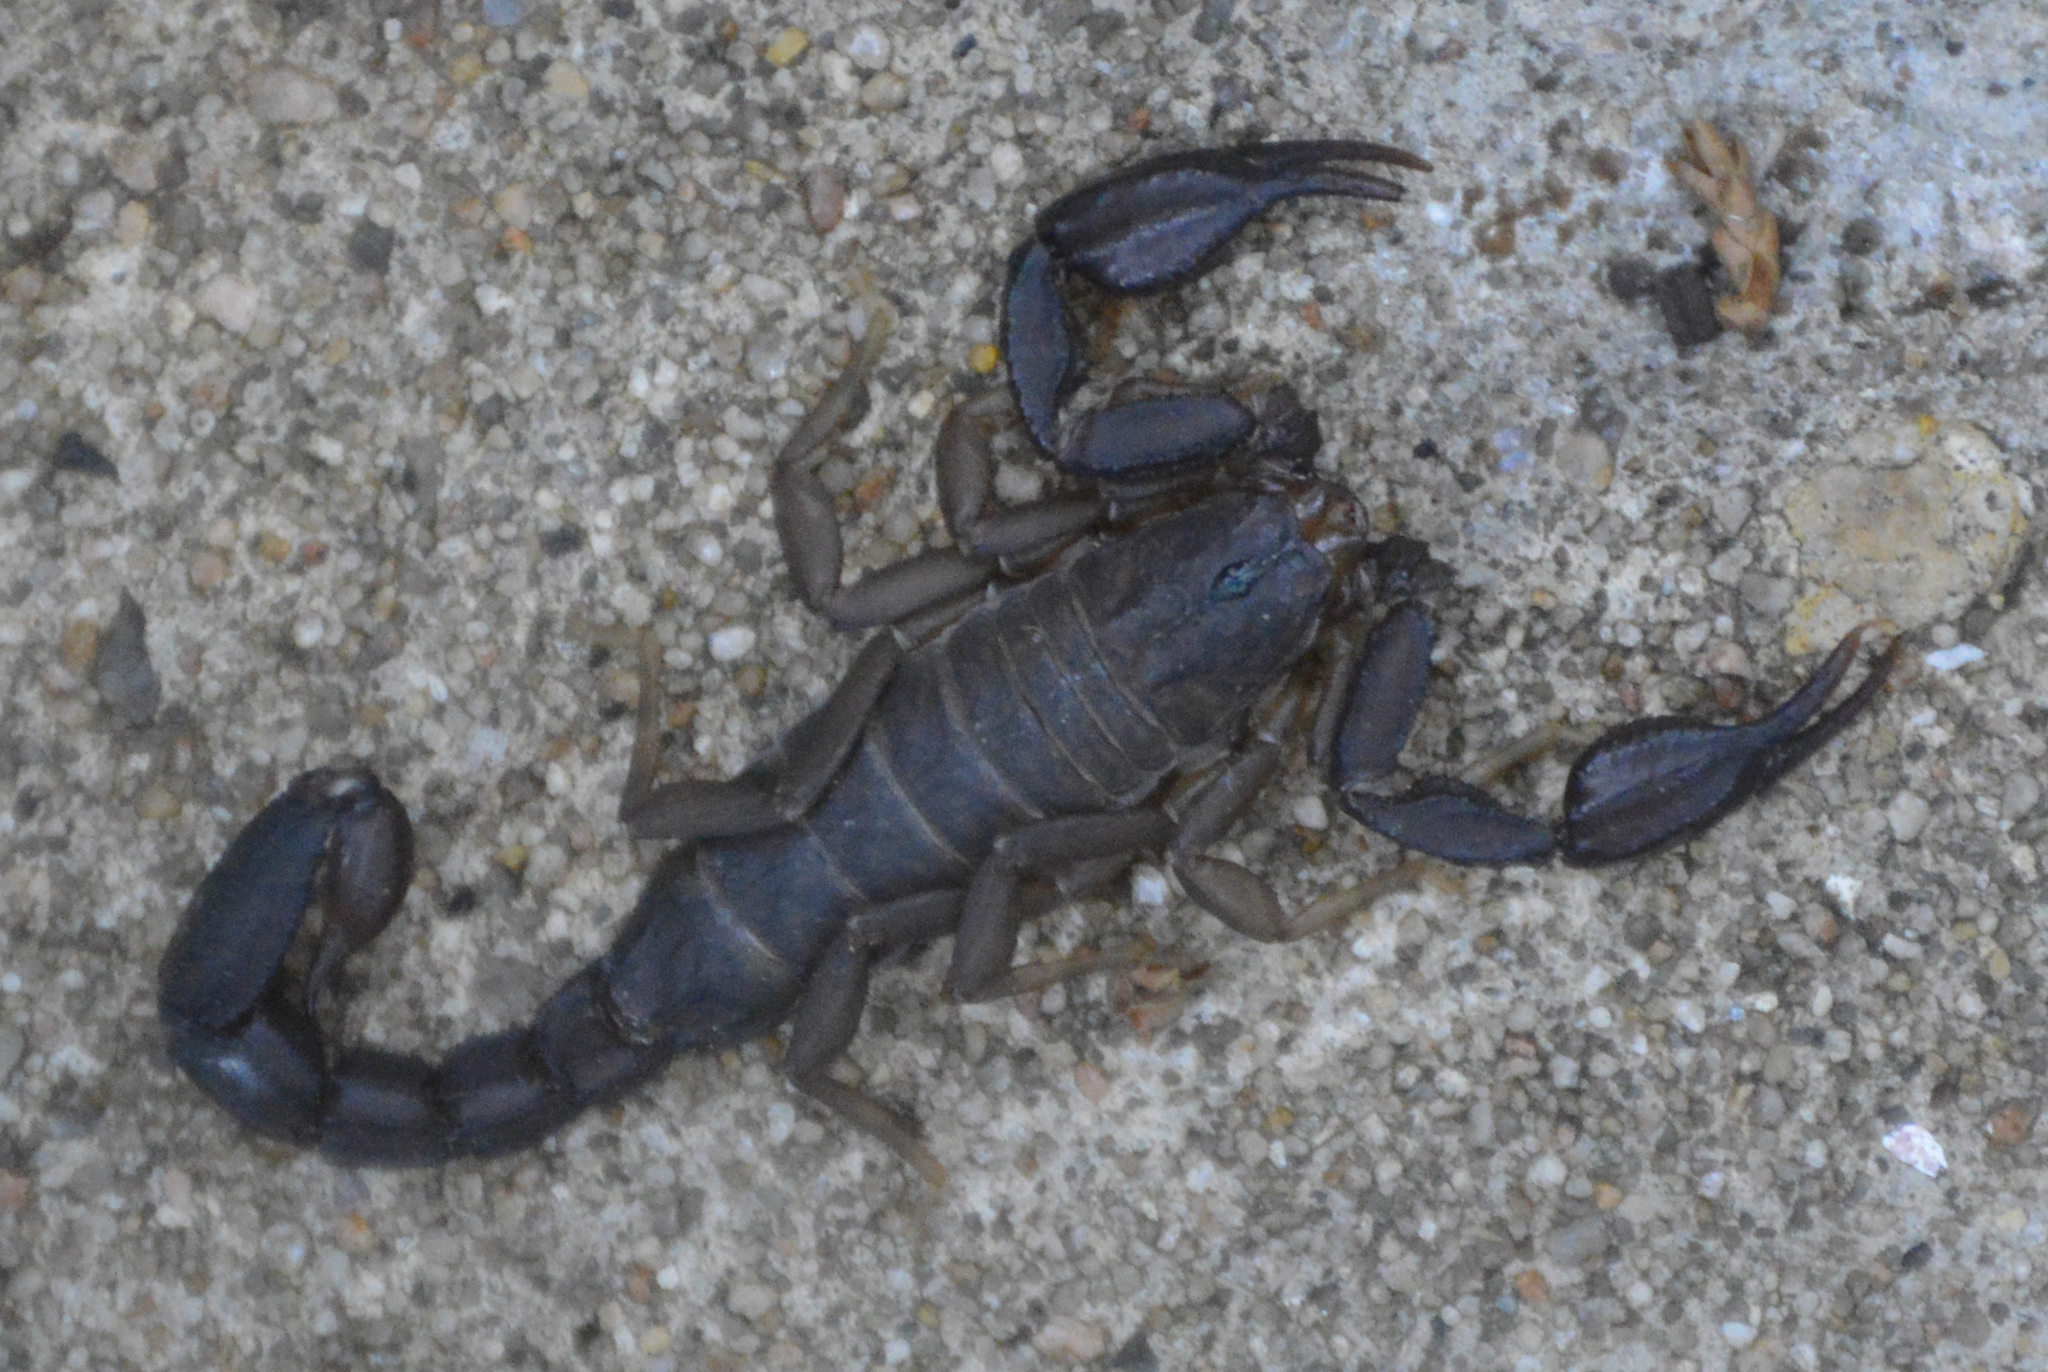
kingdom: Animalia
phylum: Arthropoda
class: Arachnida
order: Scorpiones
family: Vaejovidae
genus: Pseudouroctonus
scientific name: Pseudouroctonus reddelli
